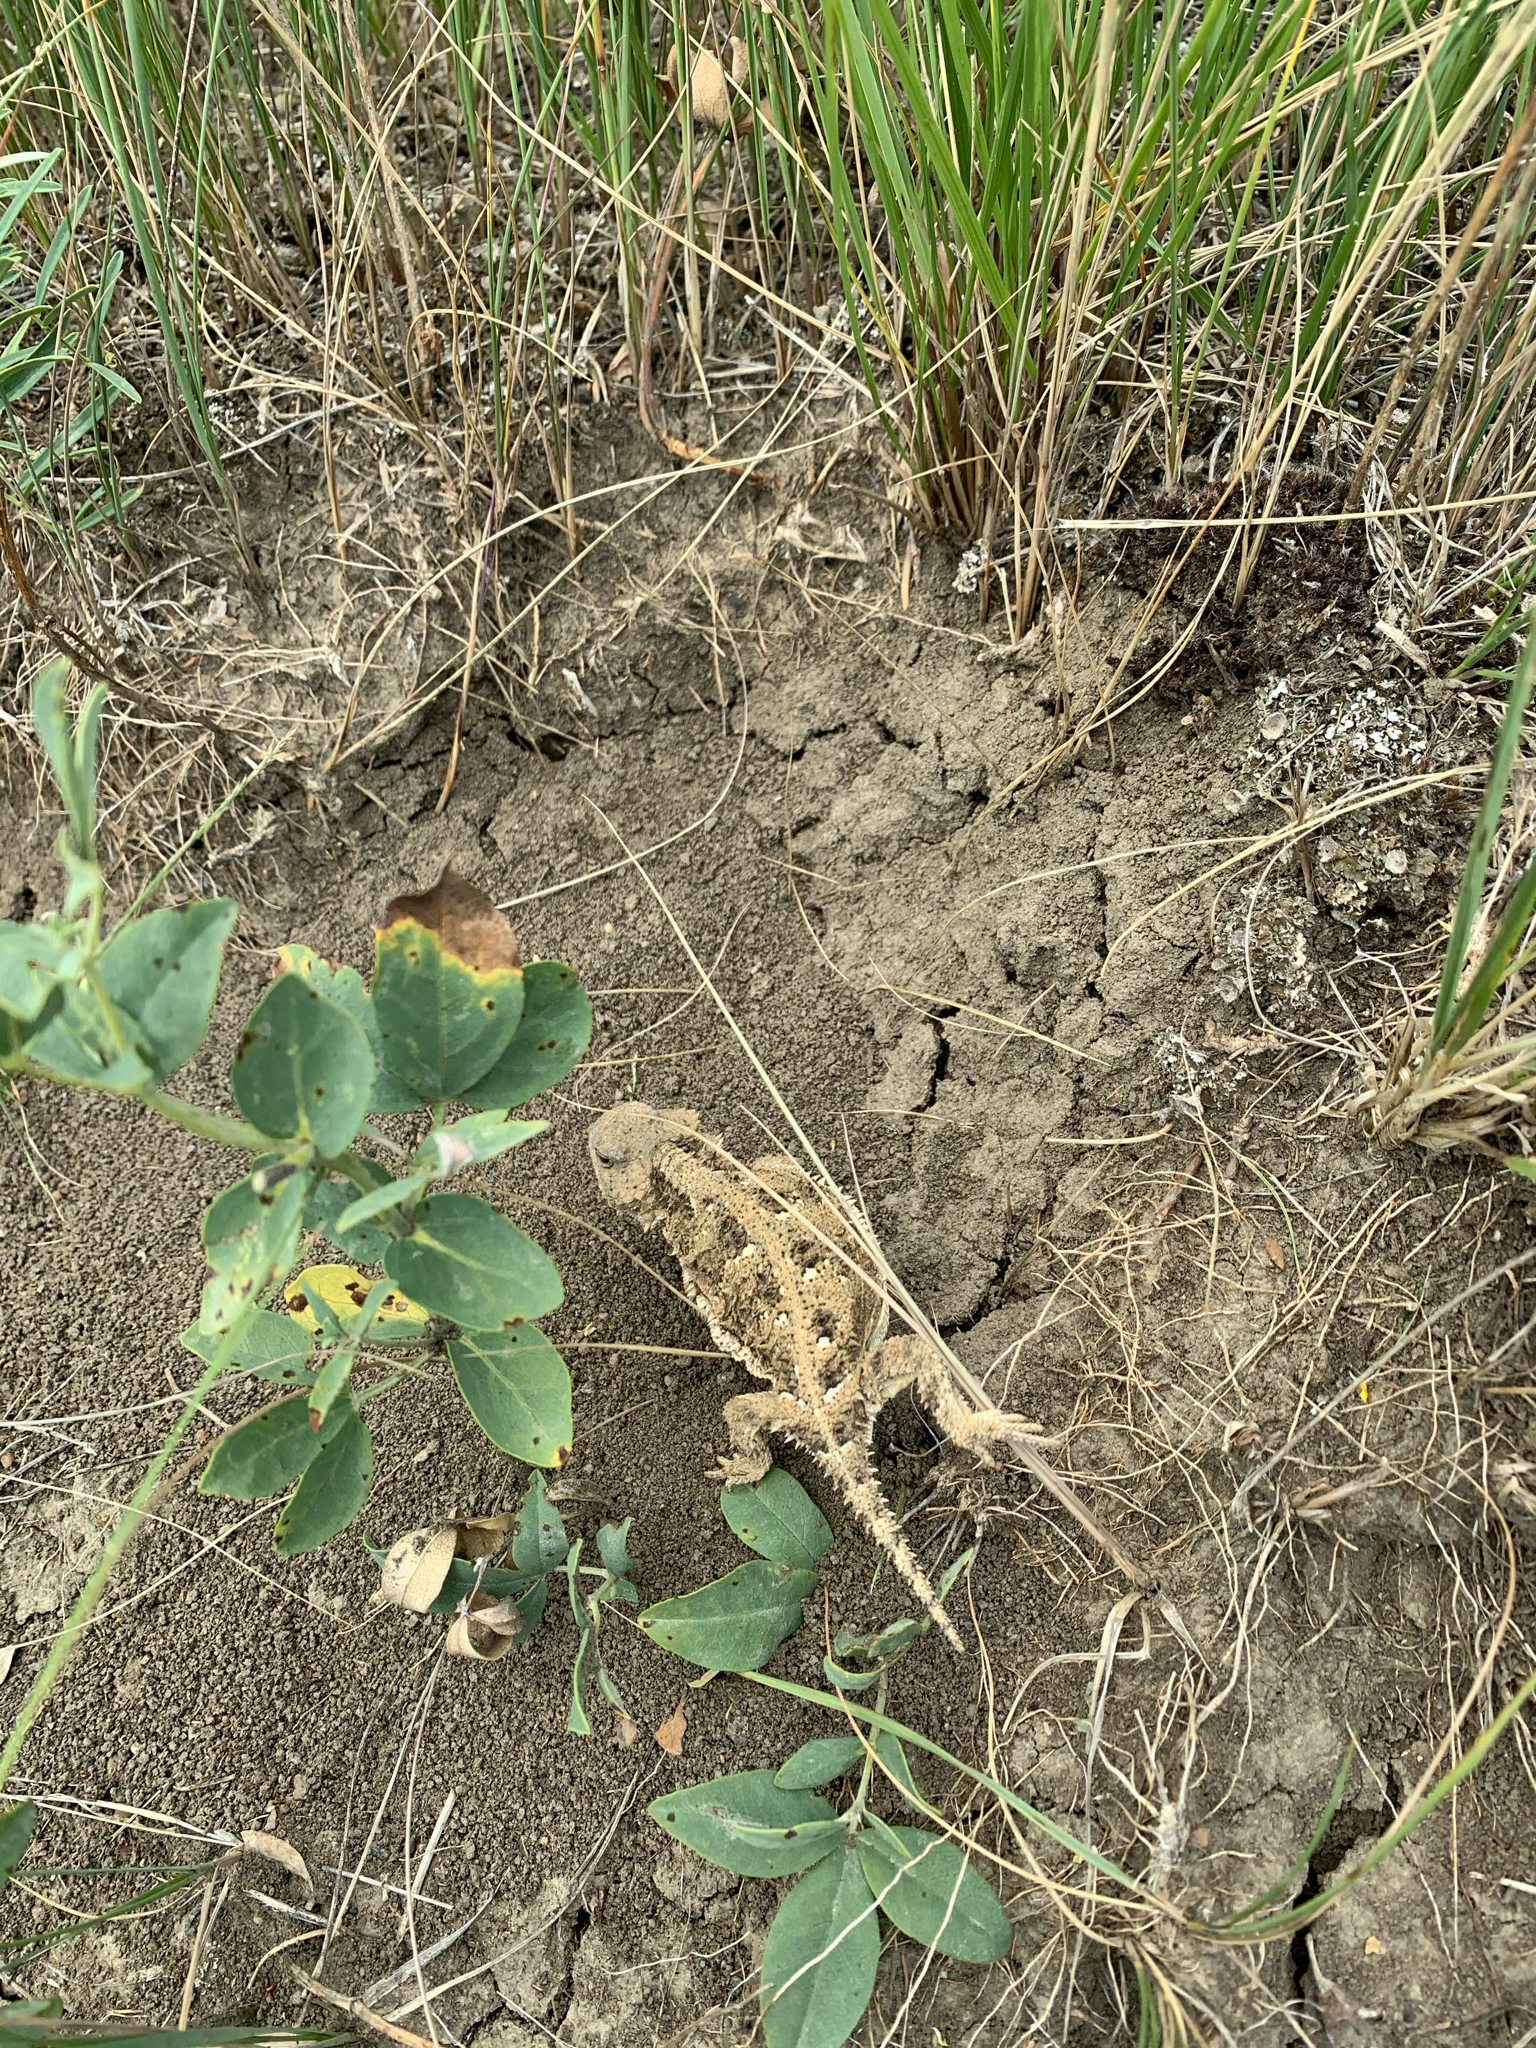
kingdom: Animalia
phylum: Chordata
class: Squamata
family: Phrynosomatidae
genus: Phrynosoma
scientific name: Phrynosoma hernandesi
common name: Greater short-horned lizard
